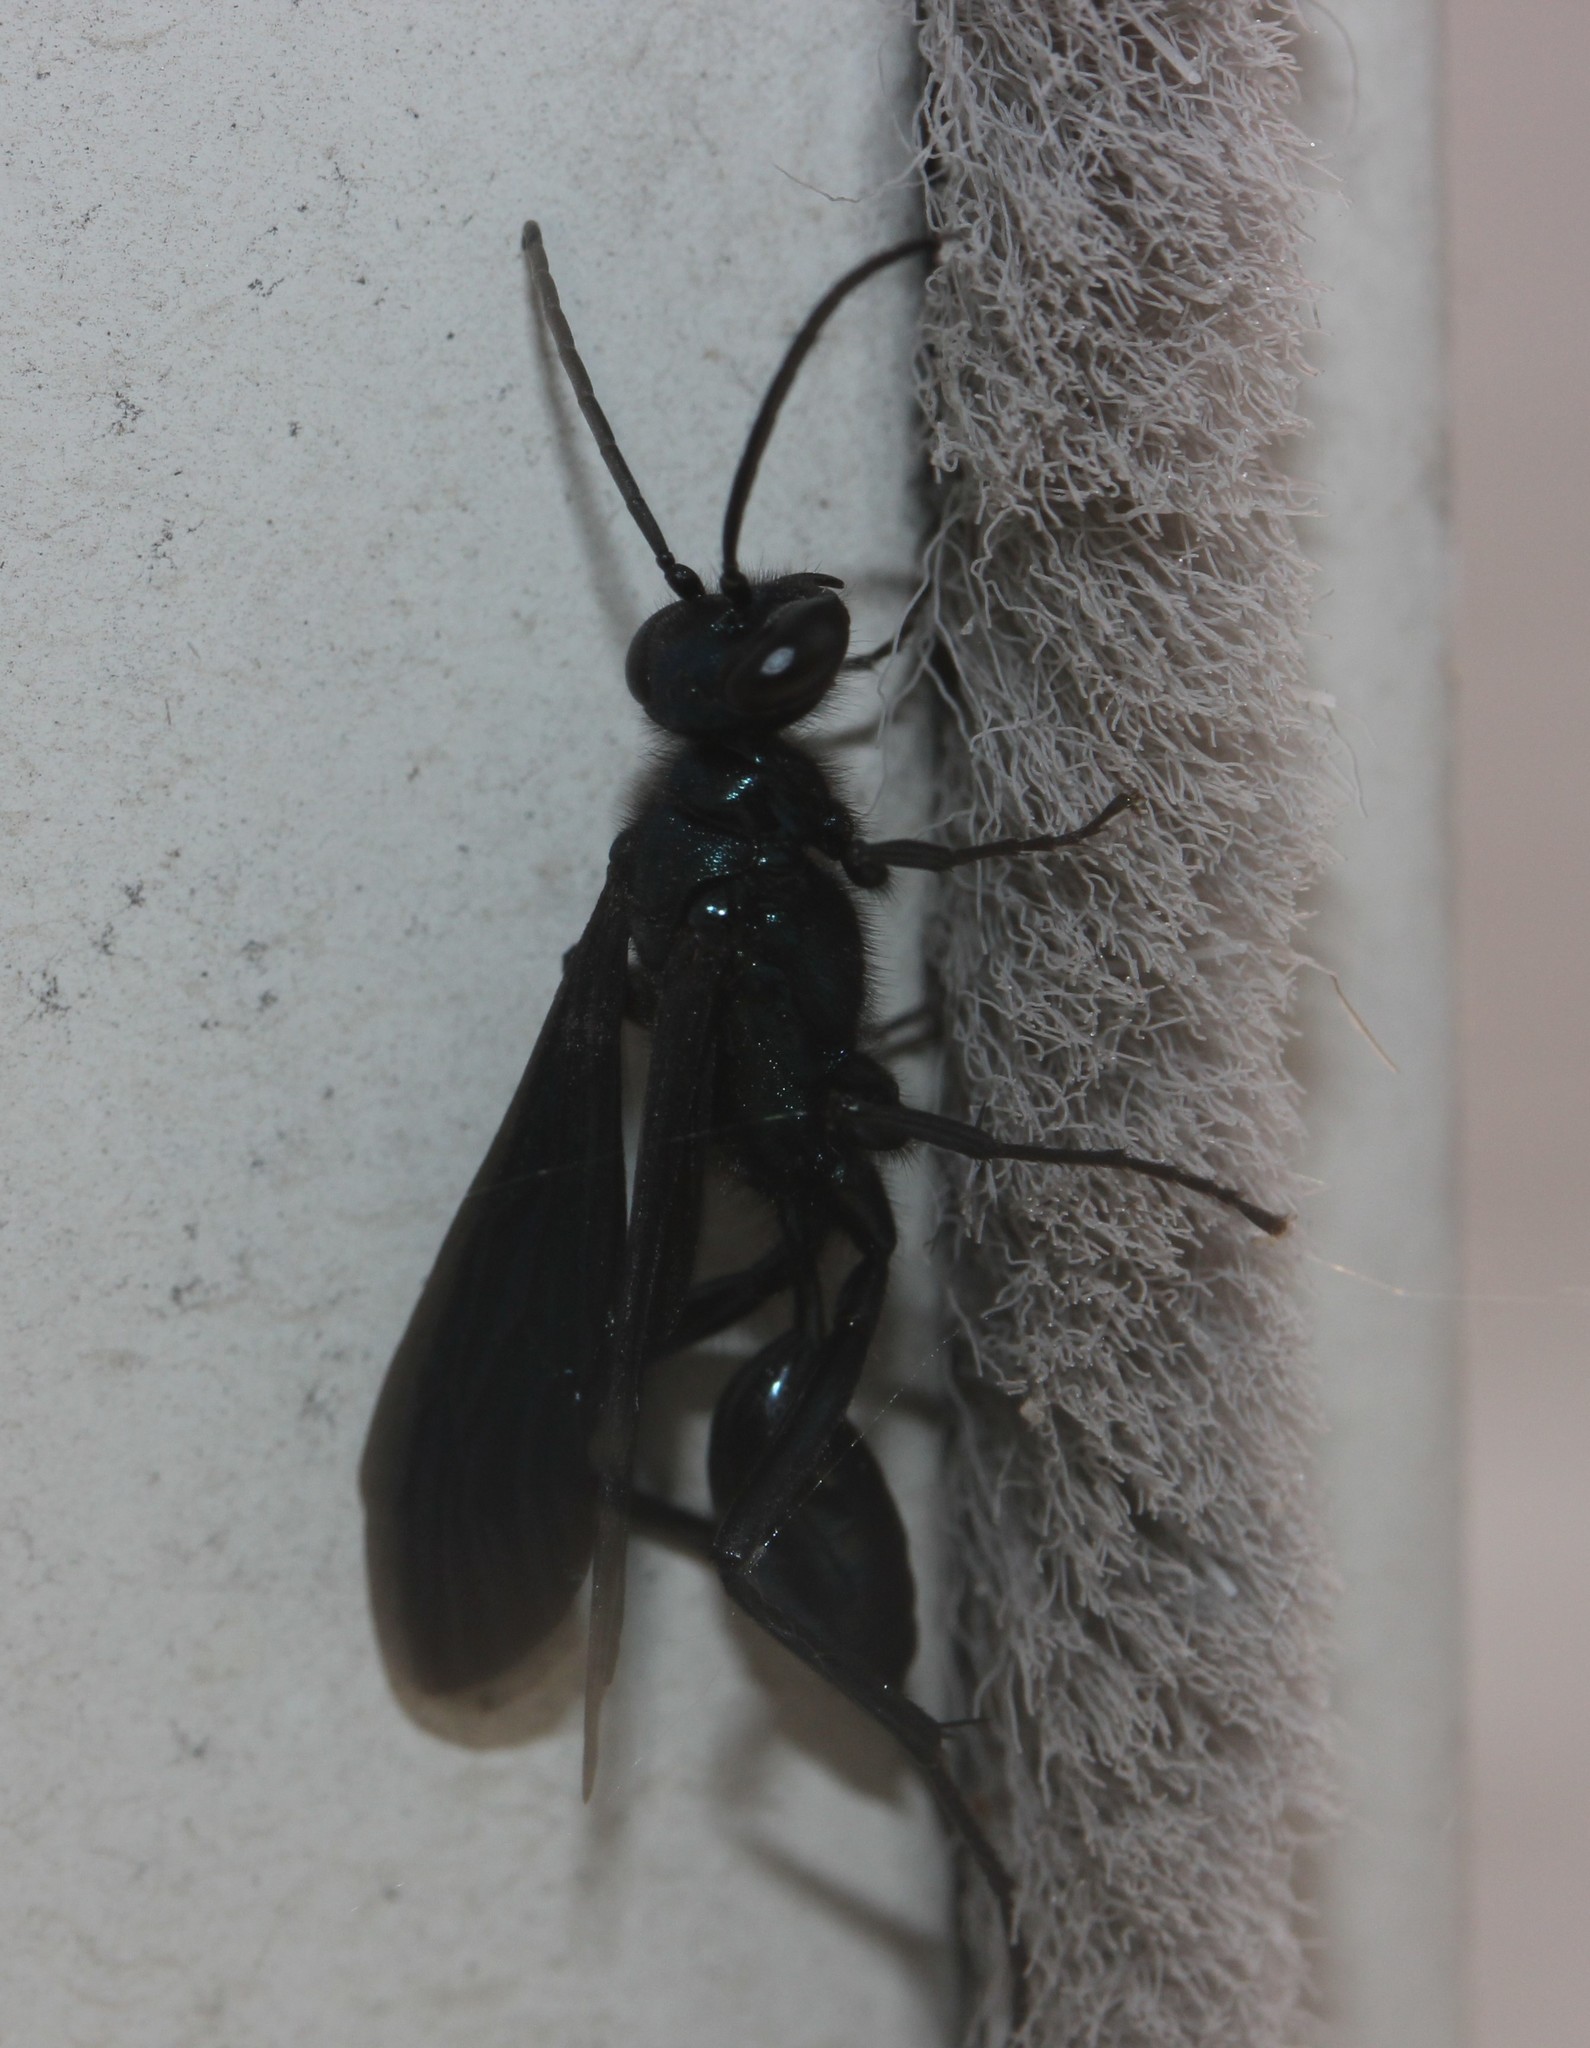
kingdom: Animalia
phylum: Arthropoda
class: Insecta
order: Hymenoptera
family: Sphecidae
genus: Chalybion
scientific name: Chalybion californicum
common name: Mud dauber
